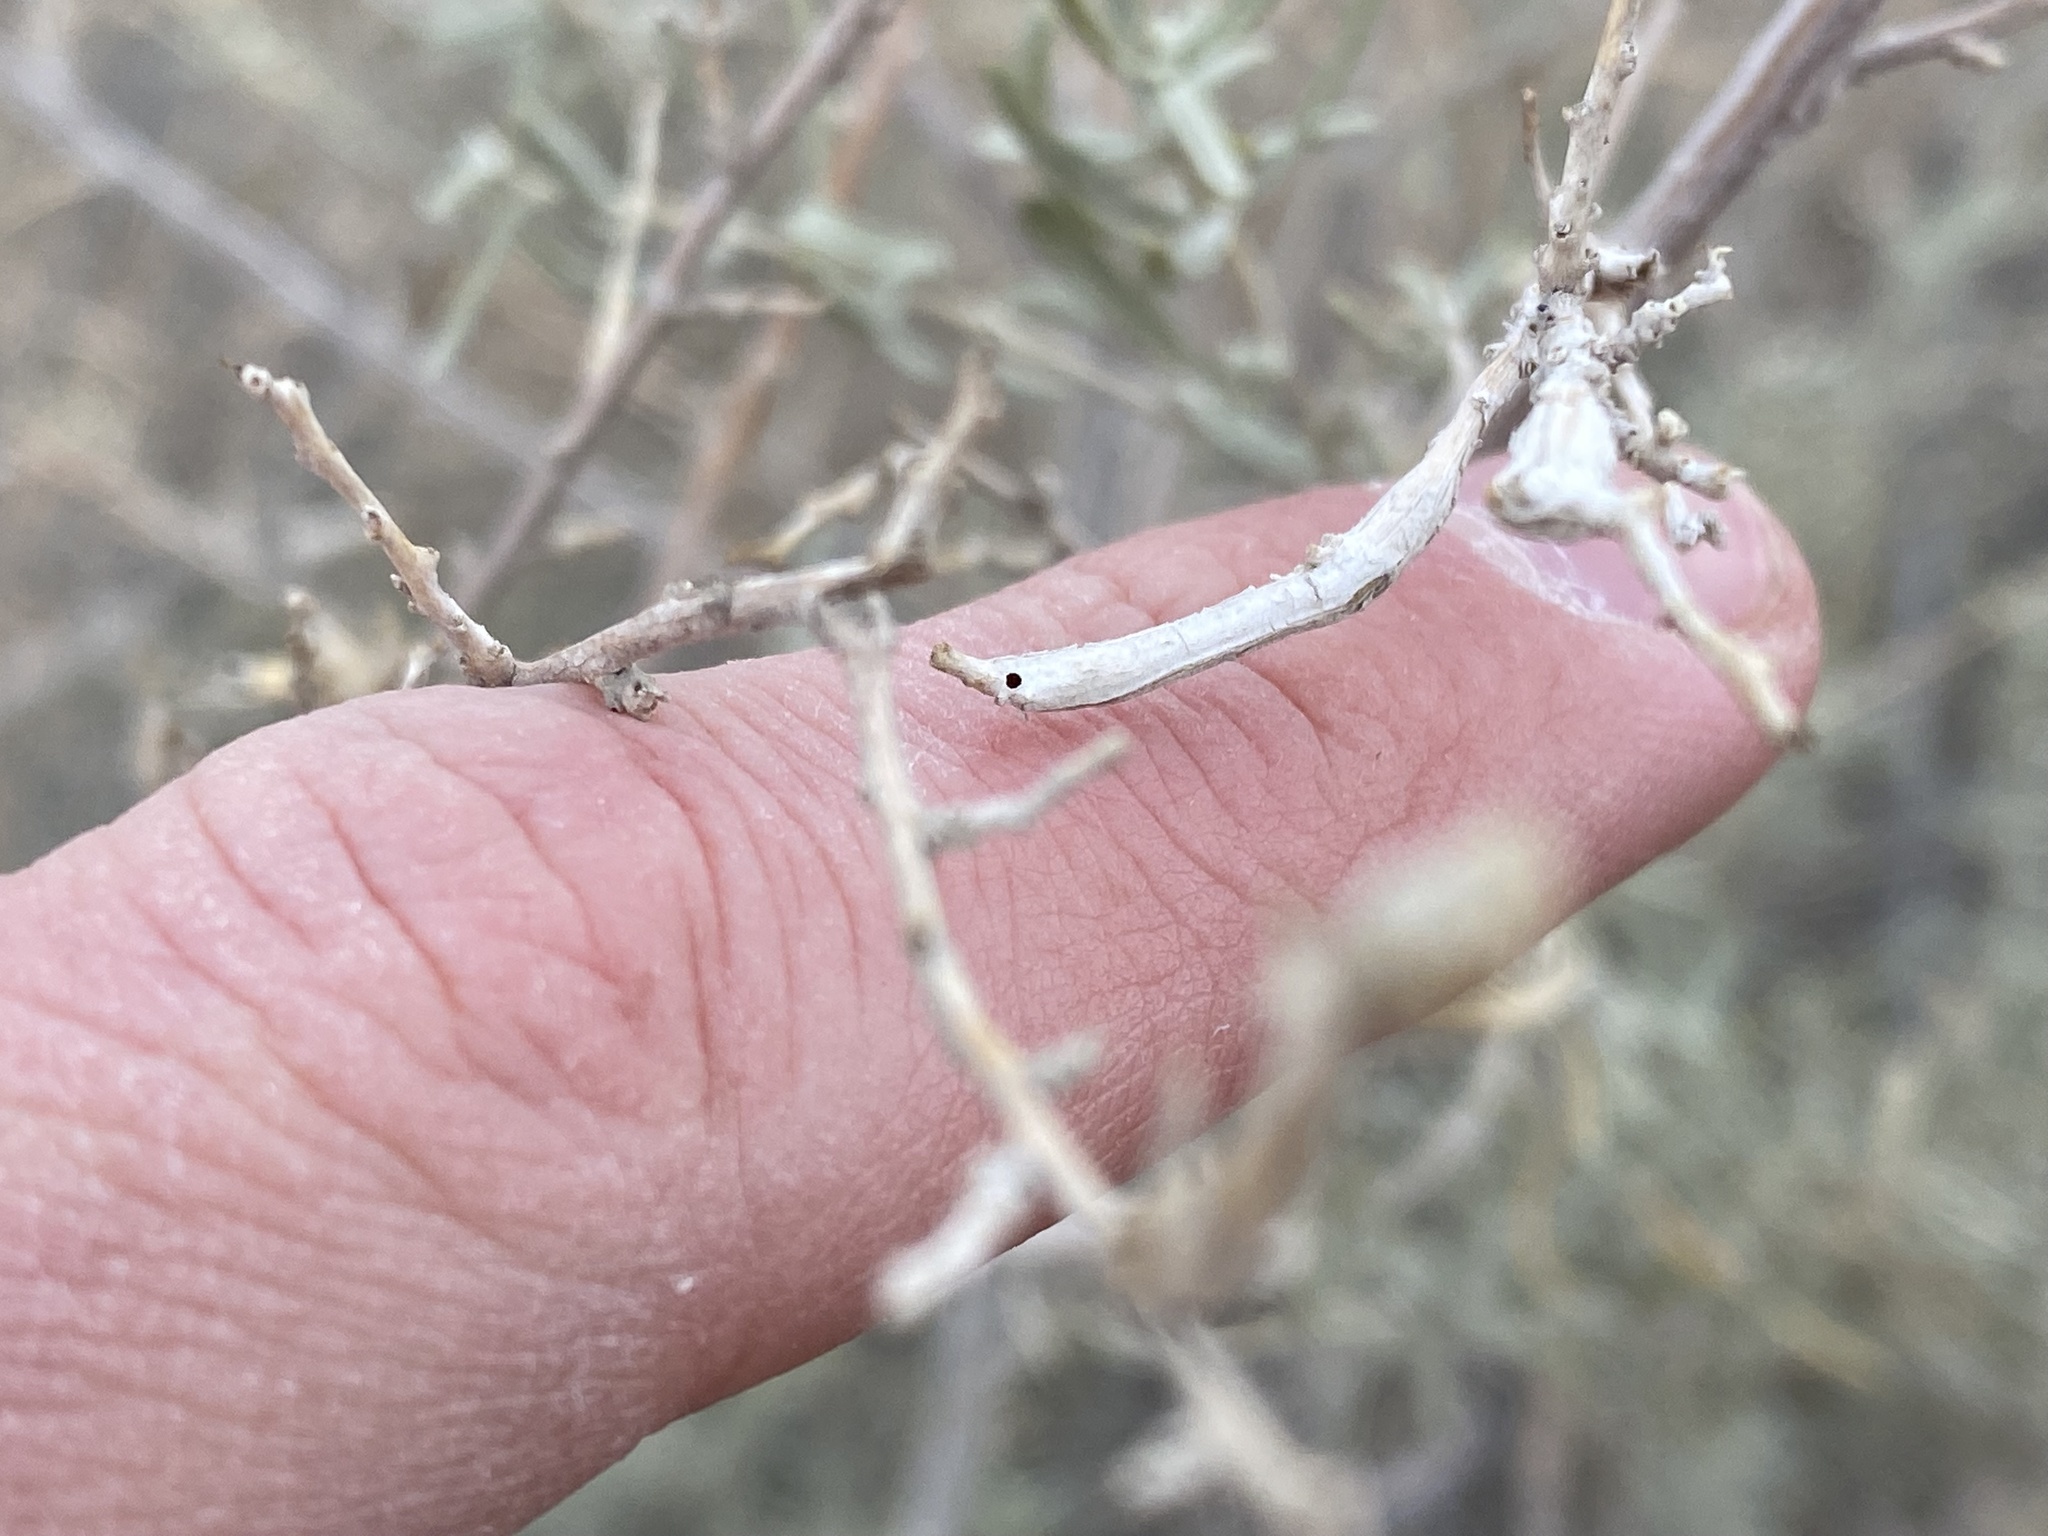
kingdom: Animalia
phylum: Arthropoda
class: Insecta
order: Diptera
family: Cecidomyiidae
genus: Neolasioptera
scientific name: Neolasioptera willistoni
